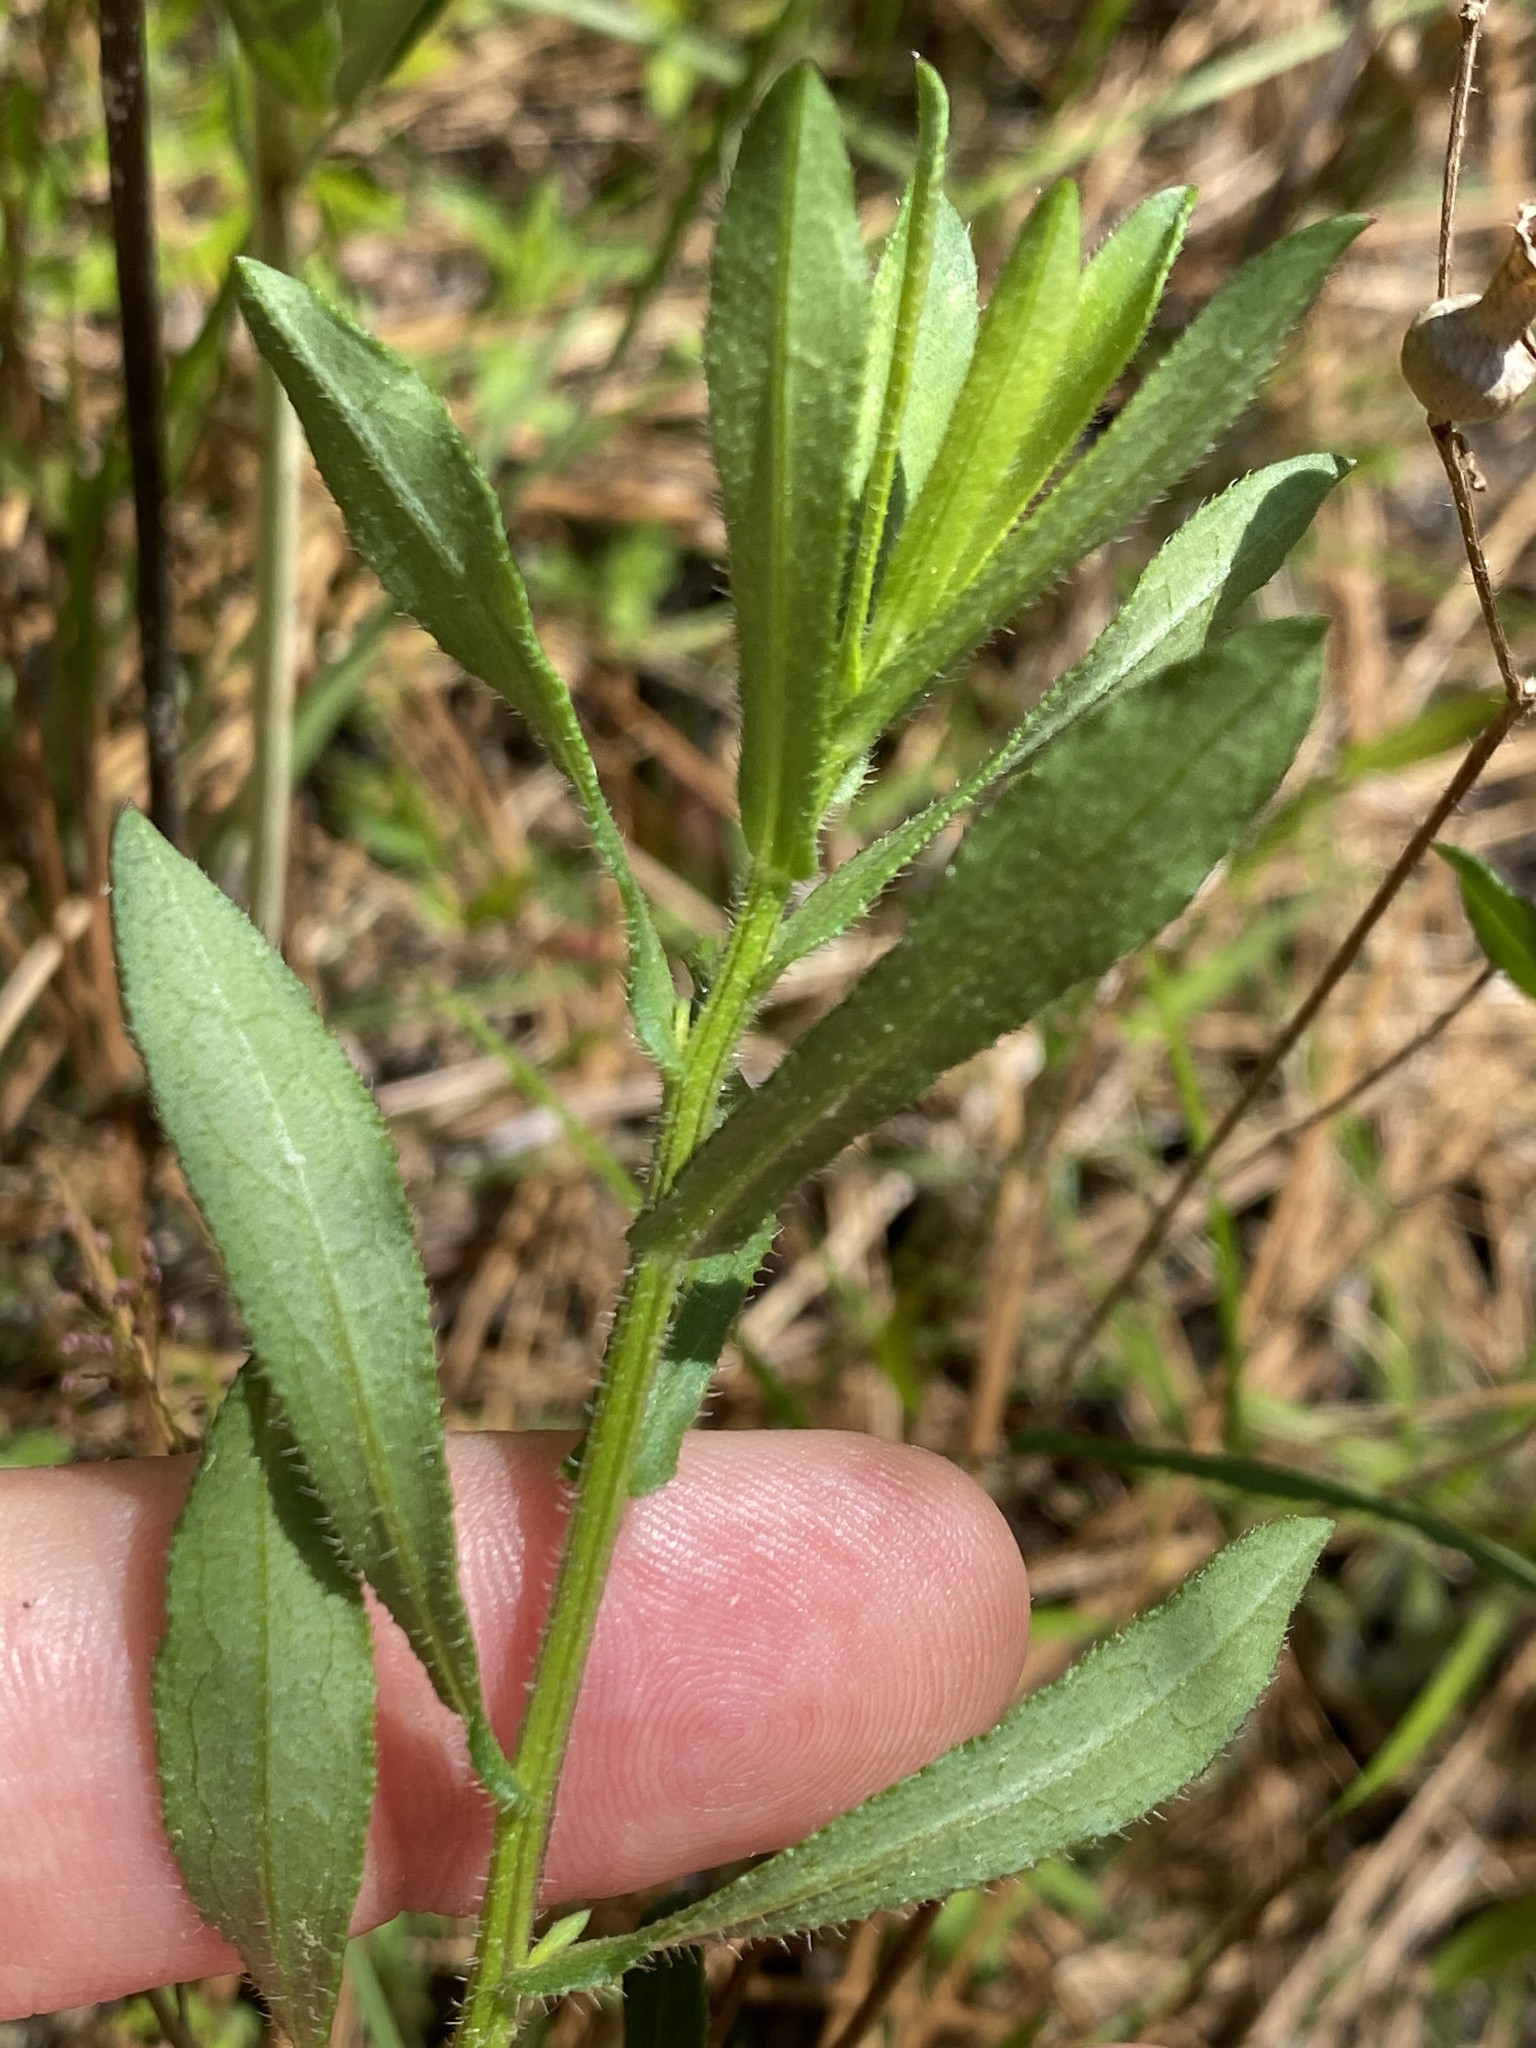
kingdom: Plantae
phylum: Tracheophyta
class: Magnoliopsida
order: Asterales
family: Asteraceae
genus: Symphyotrichum
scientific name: Symphyotrichum grandiflorum
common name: Big-head aster
